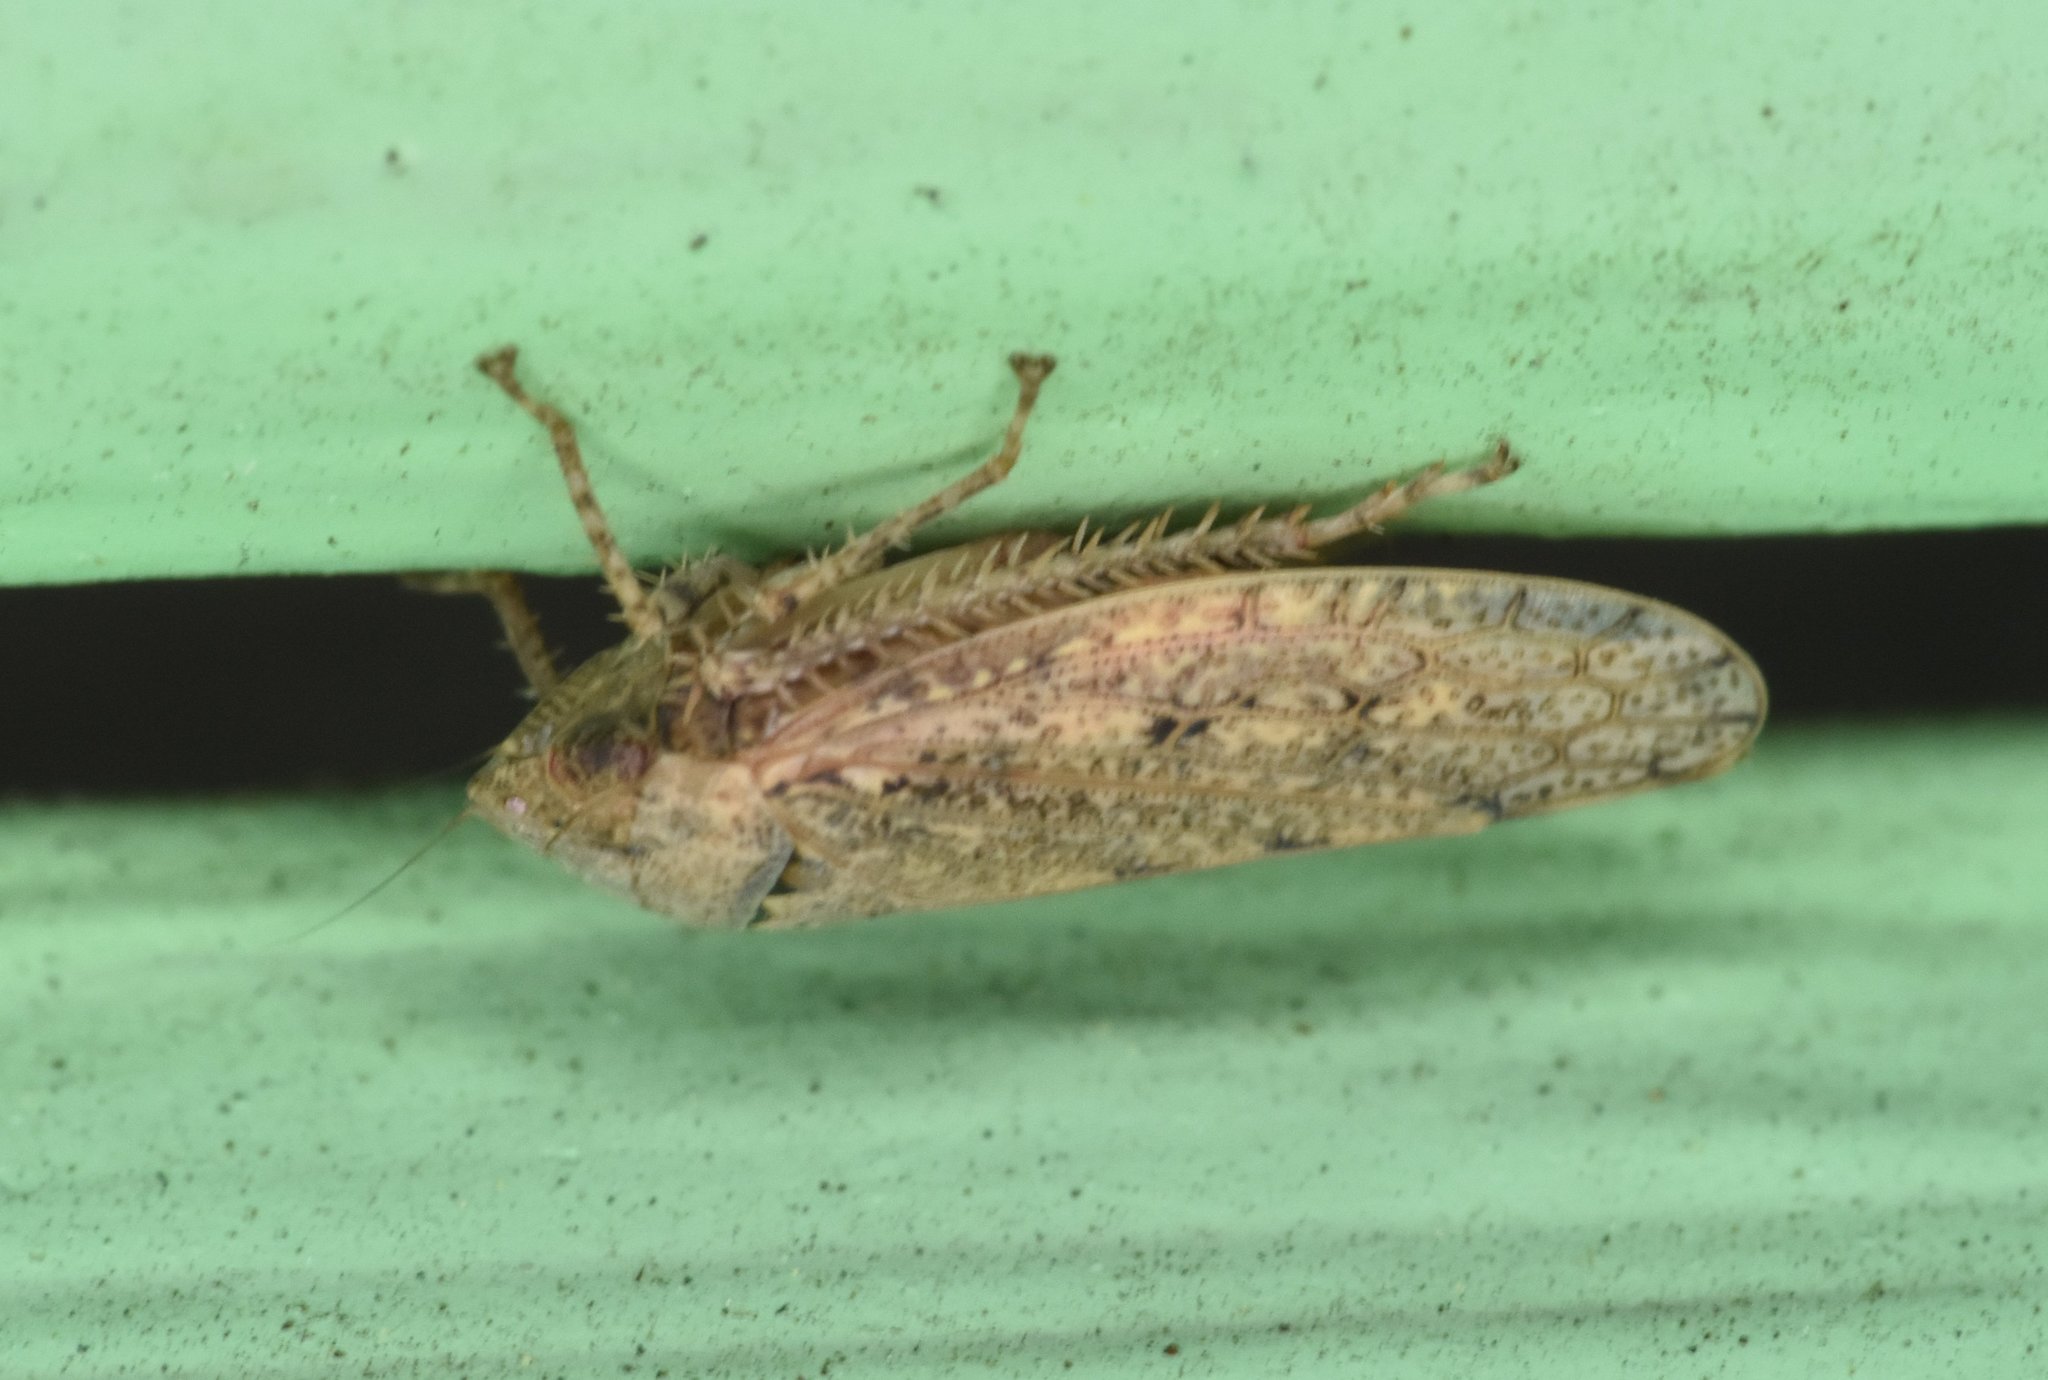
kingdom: Animalia
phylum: Arthropoda
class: Insecta
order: Hemiptera
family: Cicadellidae
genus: Curtara
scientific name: Curtara insularis
